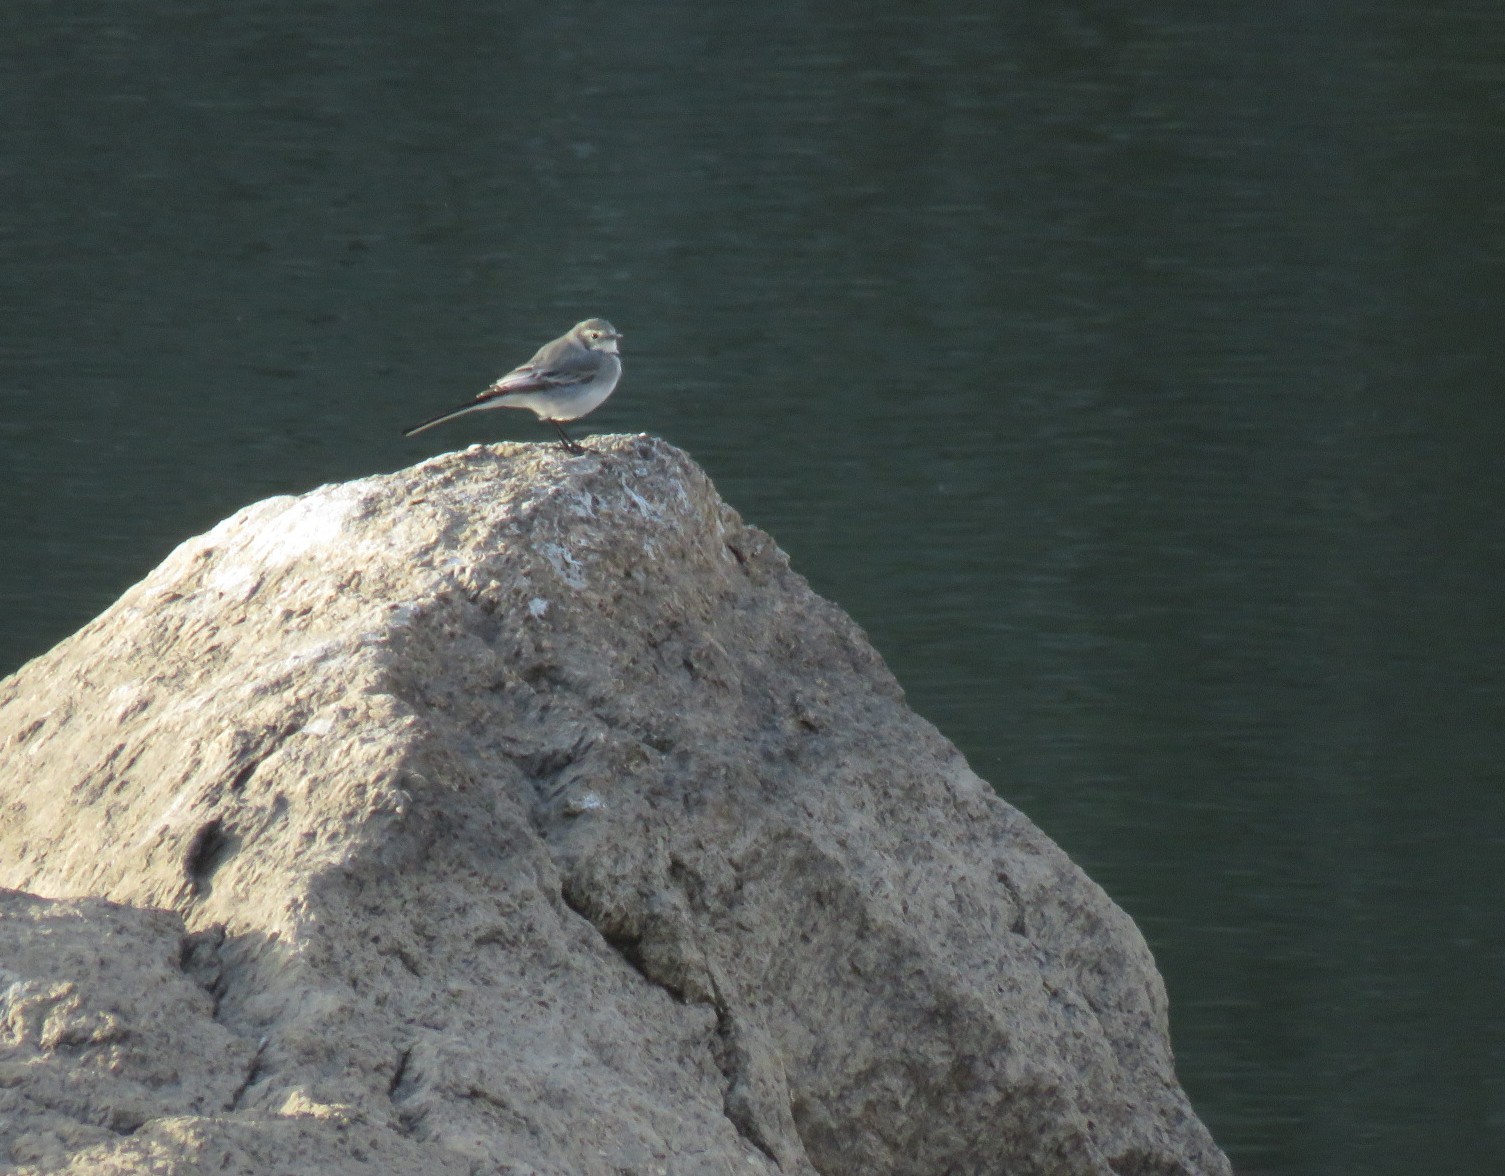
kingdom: Animalia
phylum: Chordata
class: Aves
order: Passeriformes
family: Motacillidae
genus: Motacilla
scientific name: Motacilla alba
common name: White wagtail
